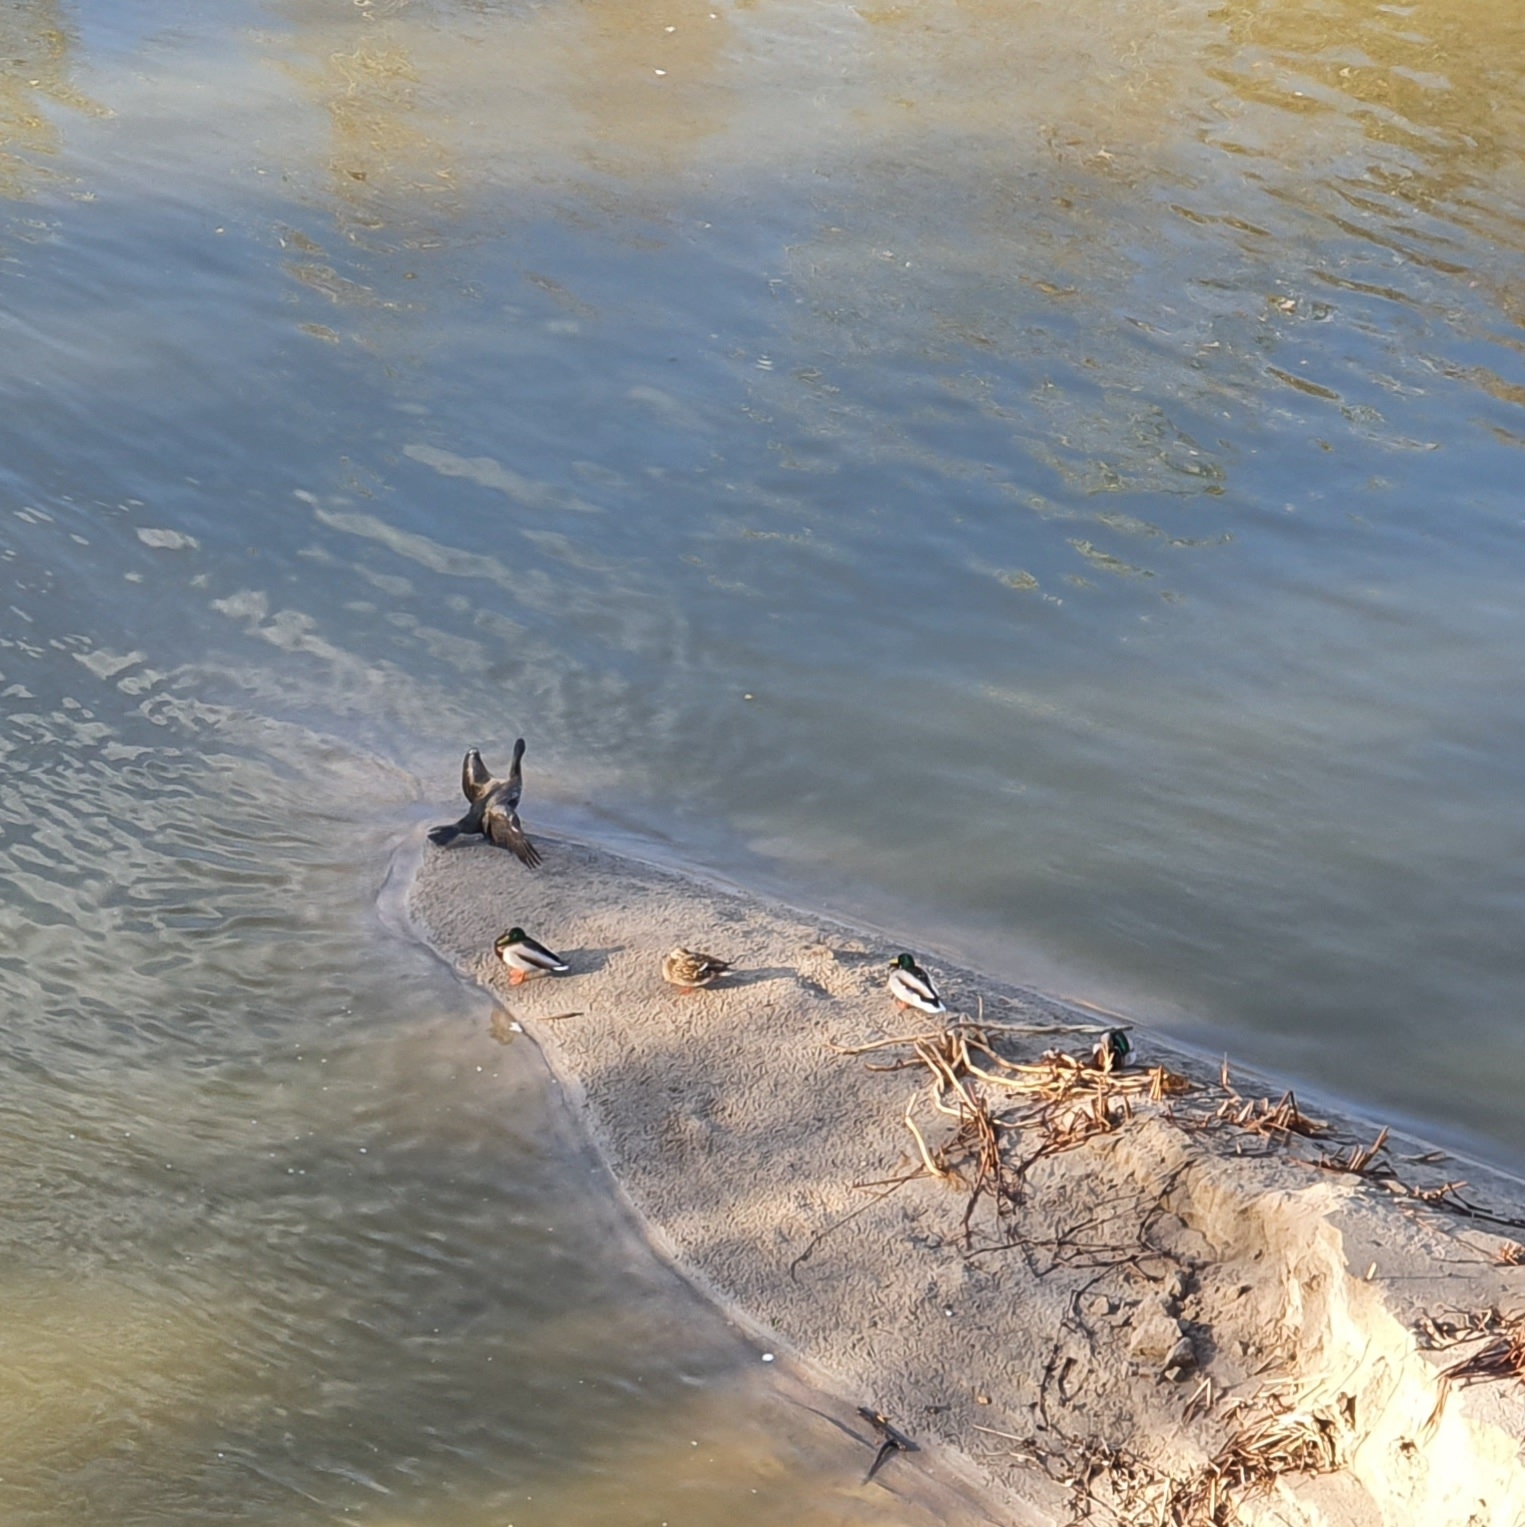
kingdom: Animalia
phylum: Chordata
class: Aves
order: Suliformes
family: Phalacrocoracidae
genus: Phalacrocorax
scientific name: Phalacrocorax carbo
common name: Great cormorant
